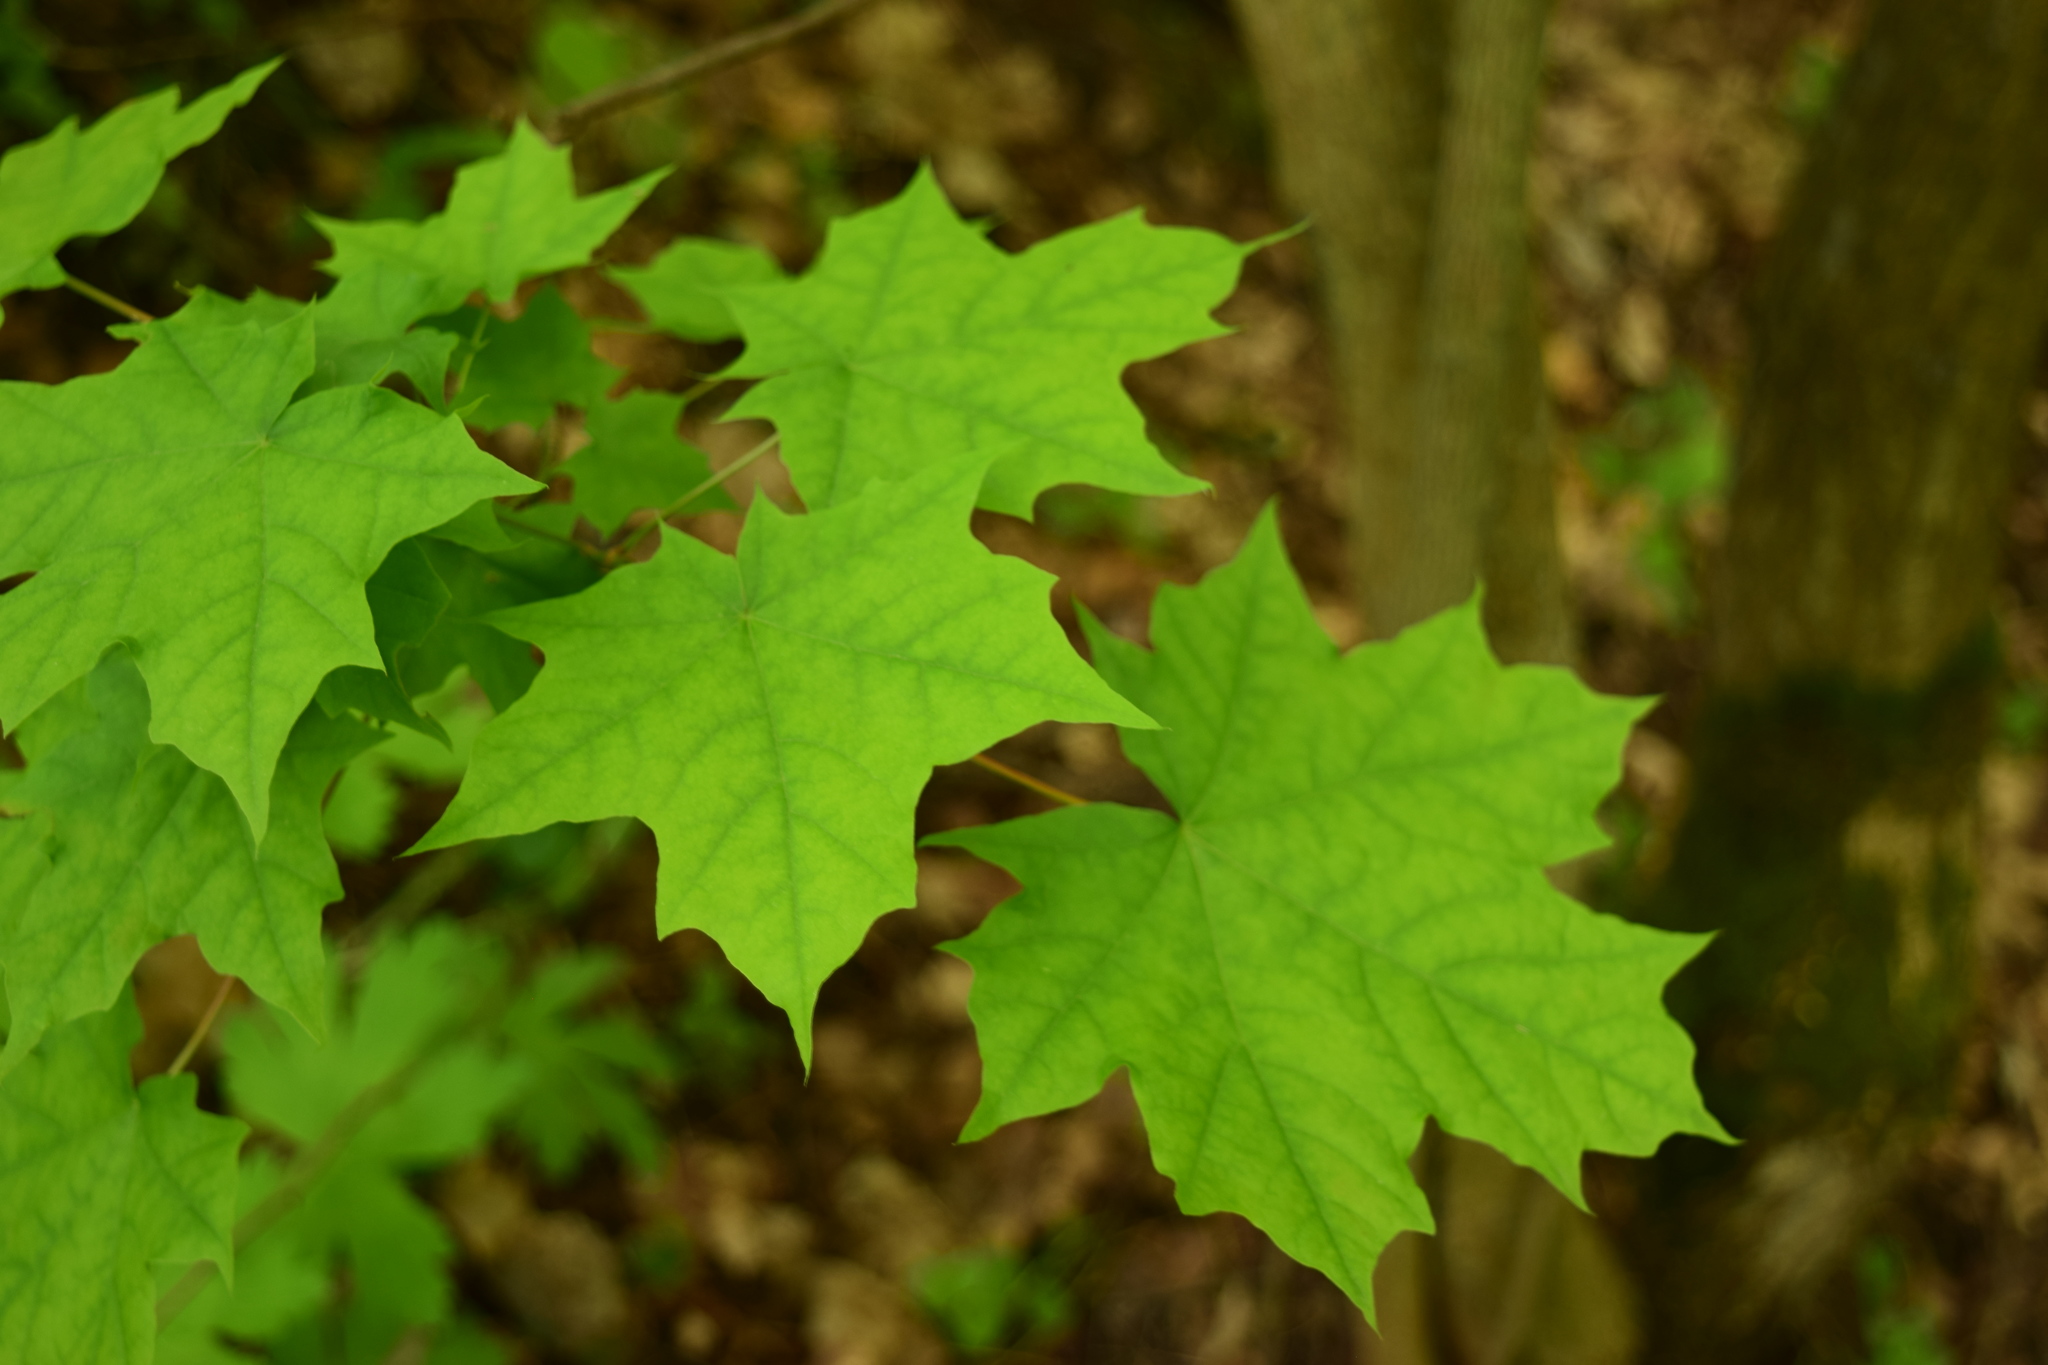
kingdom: Plantae
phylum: Tracheophyta
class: Magnoliopsida
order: Sapindales
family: Sapindaceae
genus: Acer
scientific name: Acer platanoides
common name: Norway maple
